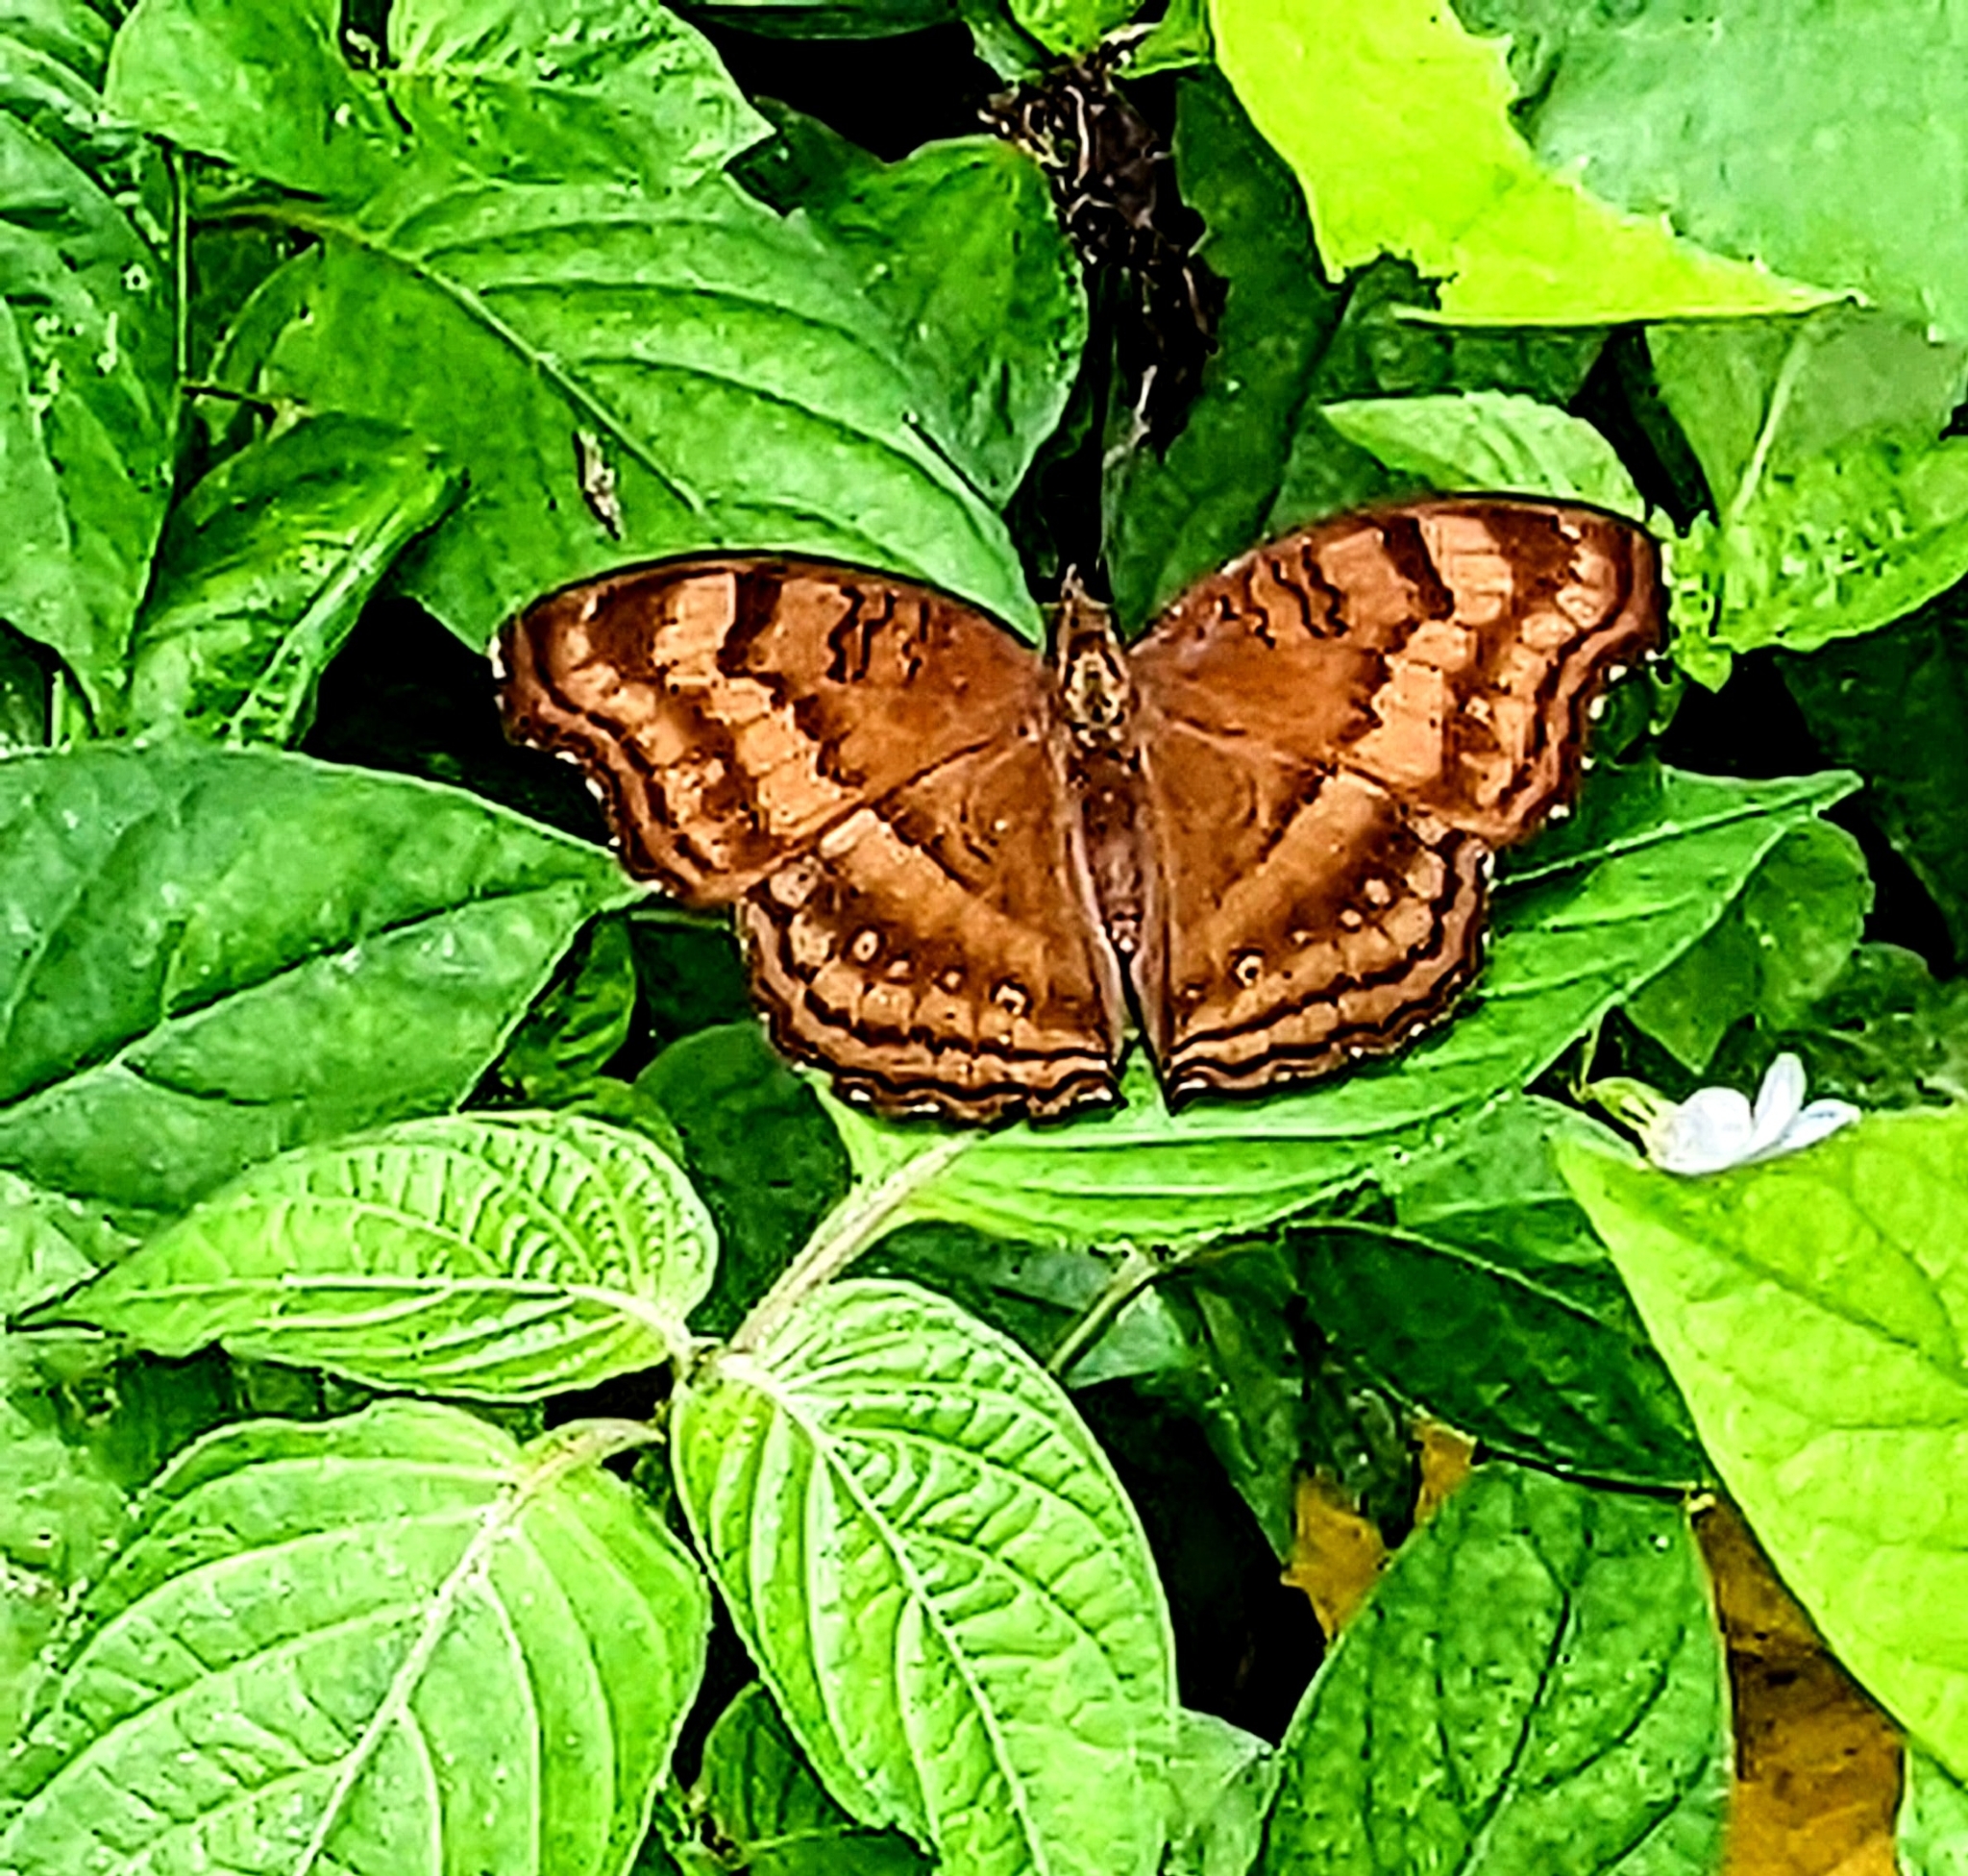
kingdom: Animalia
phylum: Arthropoda
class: Insecta
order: Lepidoptera
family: Nymphalidae
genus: Junonia
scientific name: Junonia iphita
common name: Chocolate pansy
